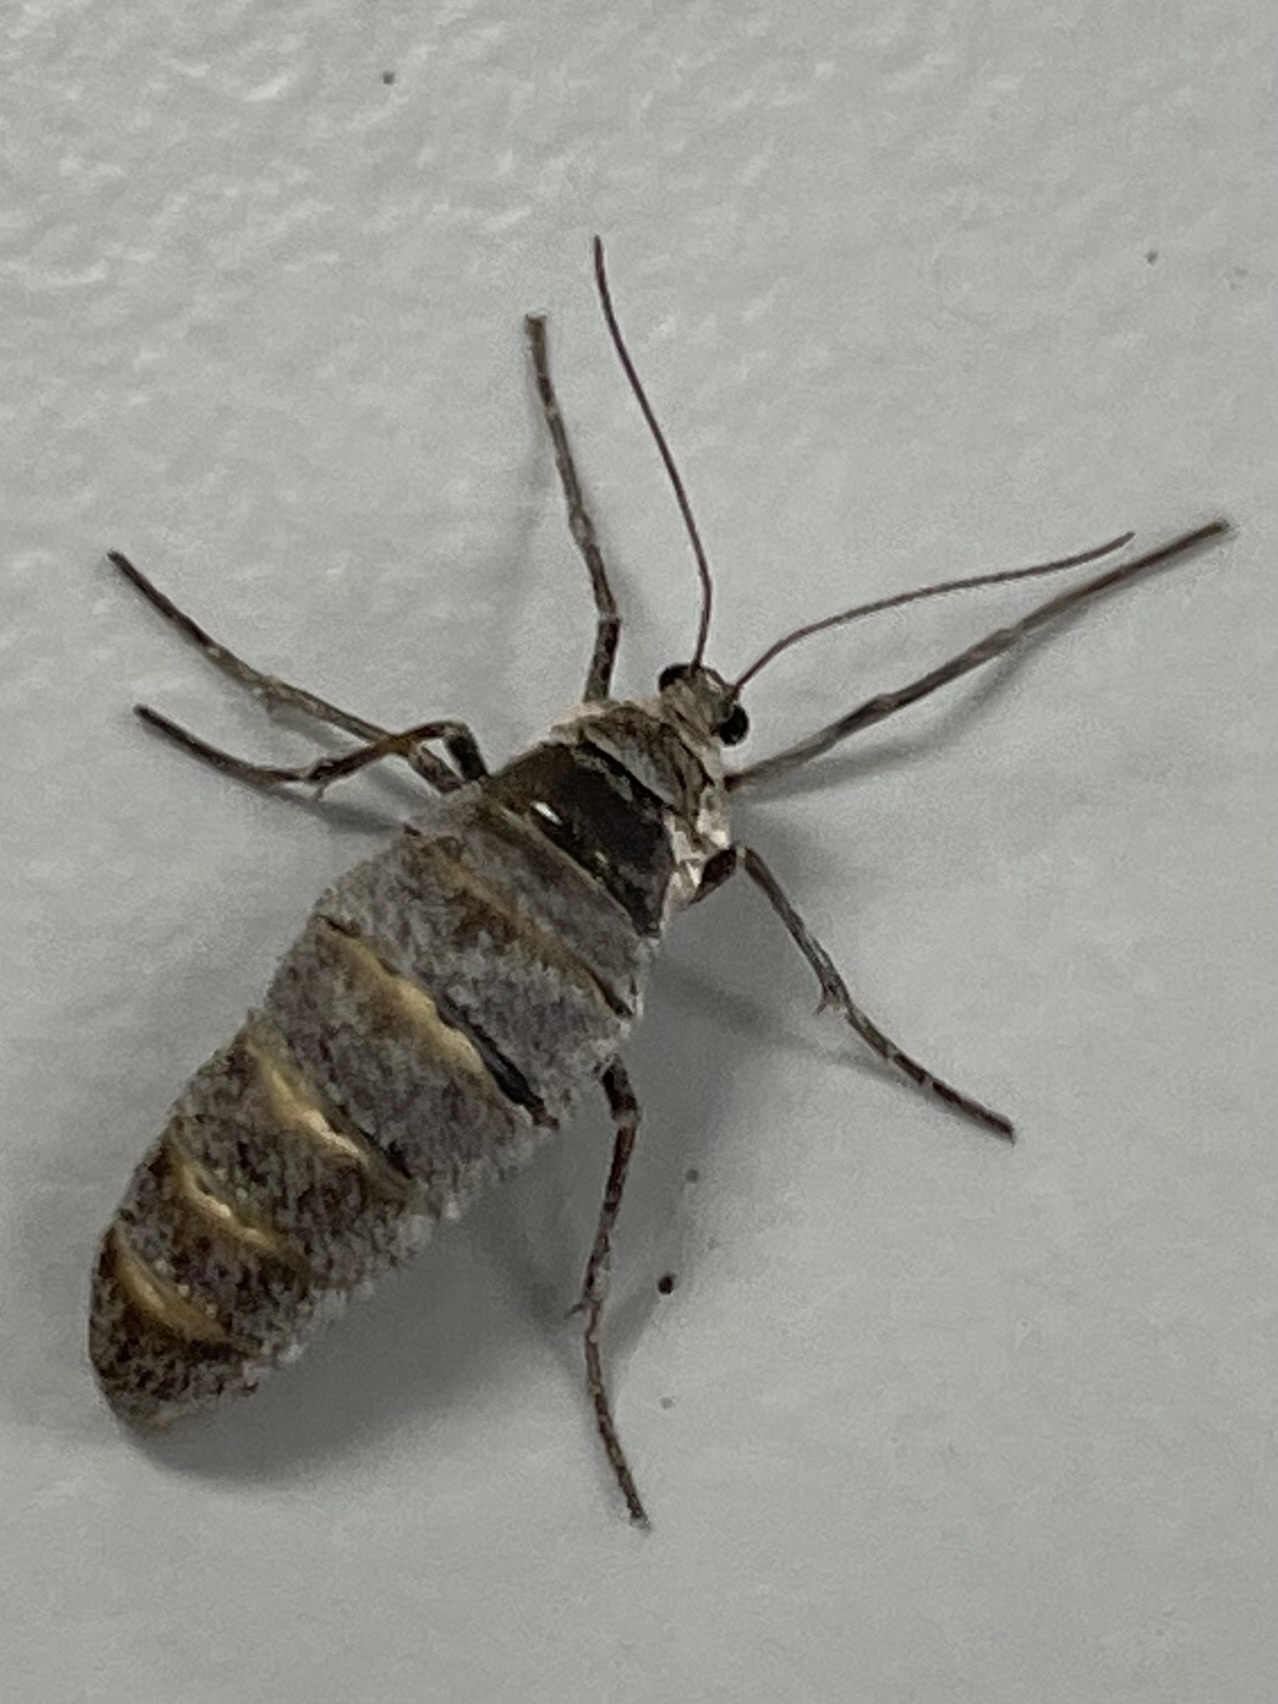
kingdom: Animalia
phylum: Arthropoda
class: Insecta
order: Lepidoptera
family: Geometridae
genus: Alsophila
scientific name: Alsophila pometaria
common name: Fall cankerworm
